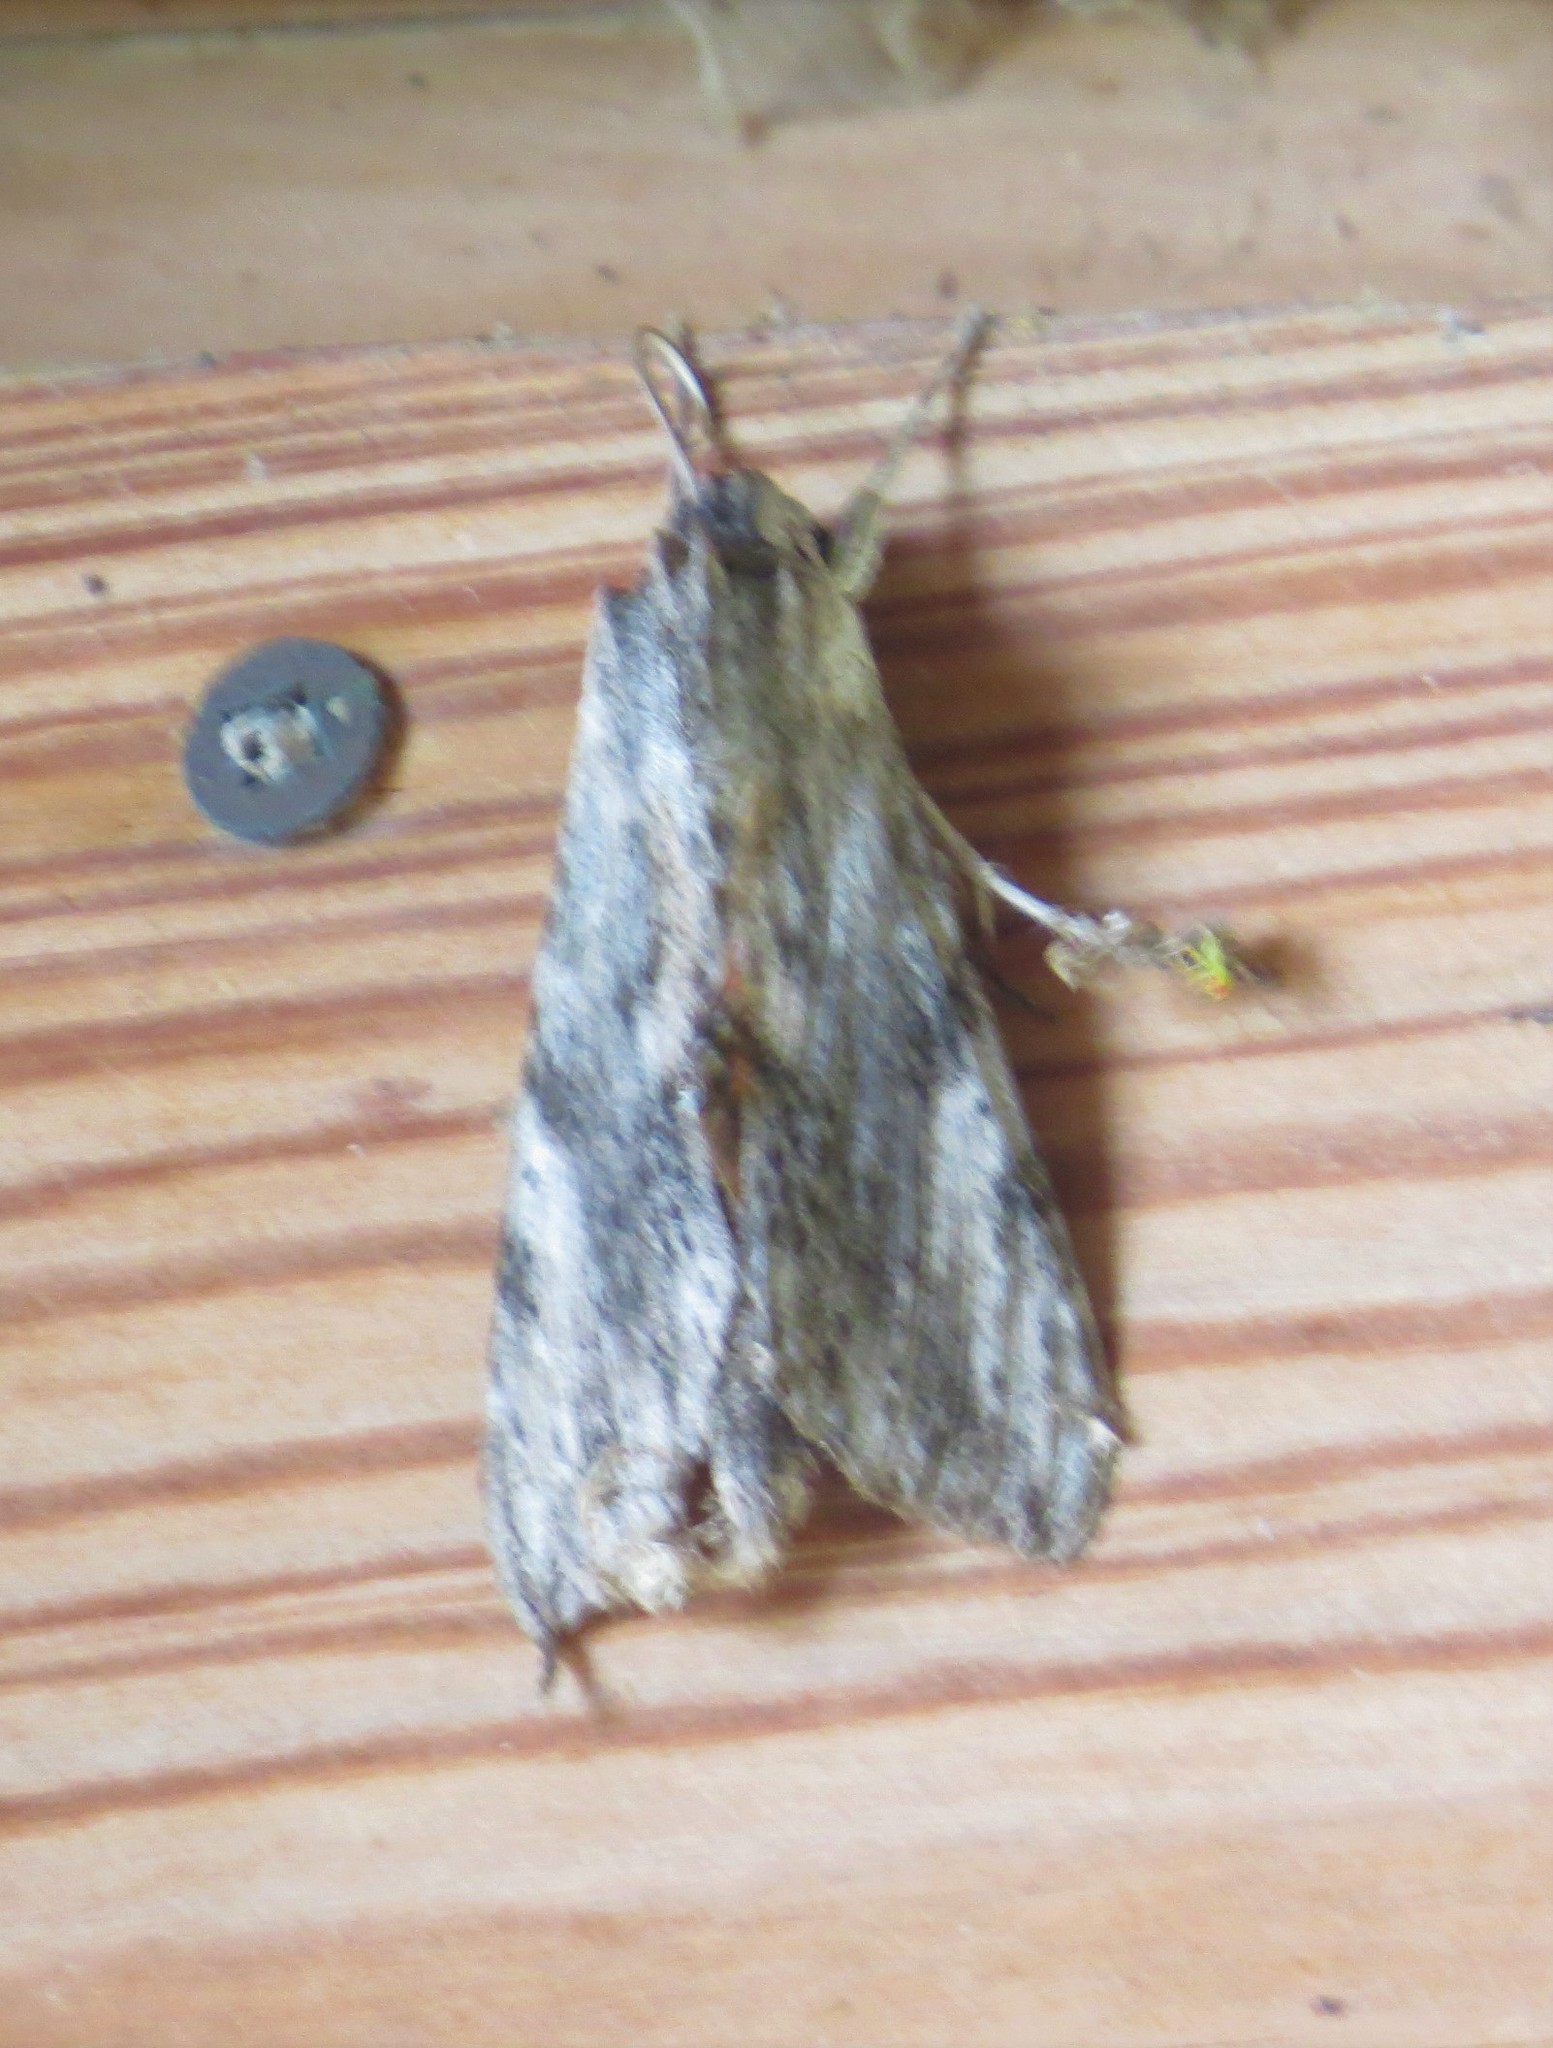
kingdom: Animalia
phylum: Arthropoda
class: Insecta
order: Lepidoptera
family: Sphingidae
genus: Erinnyis
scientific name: Erinnyis obscura
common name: Obscure sphinx
